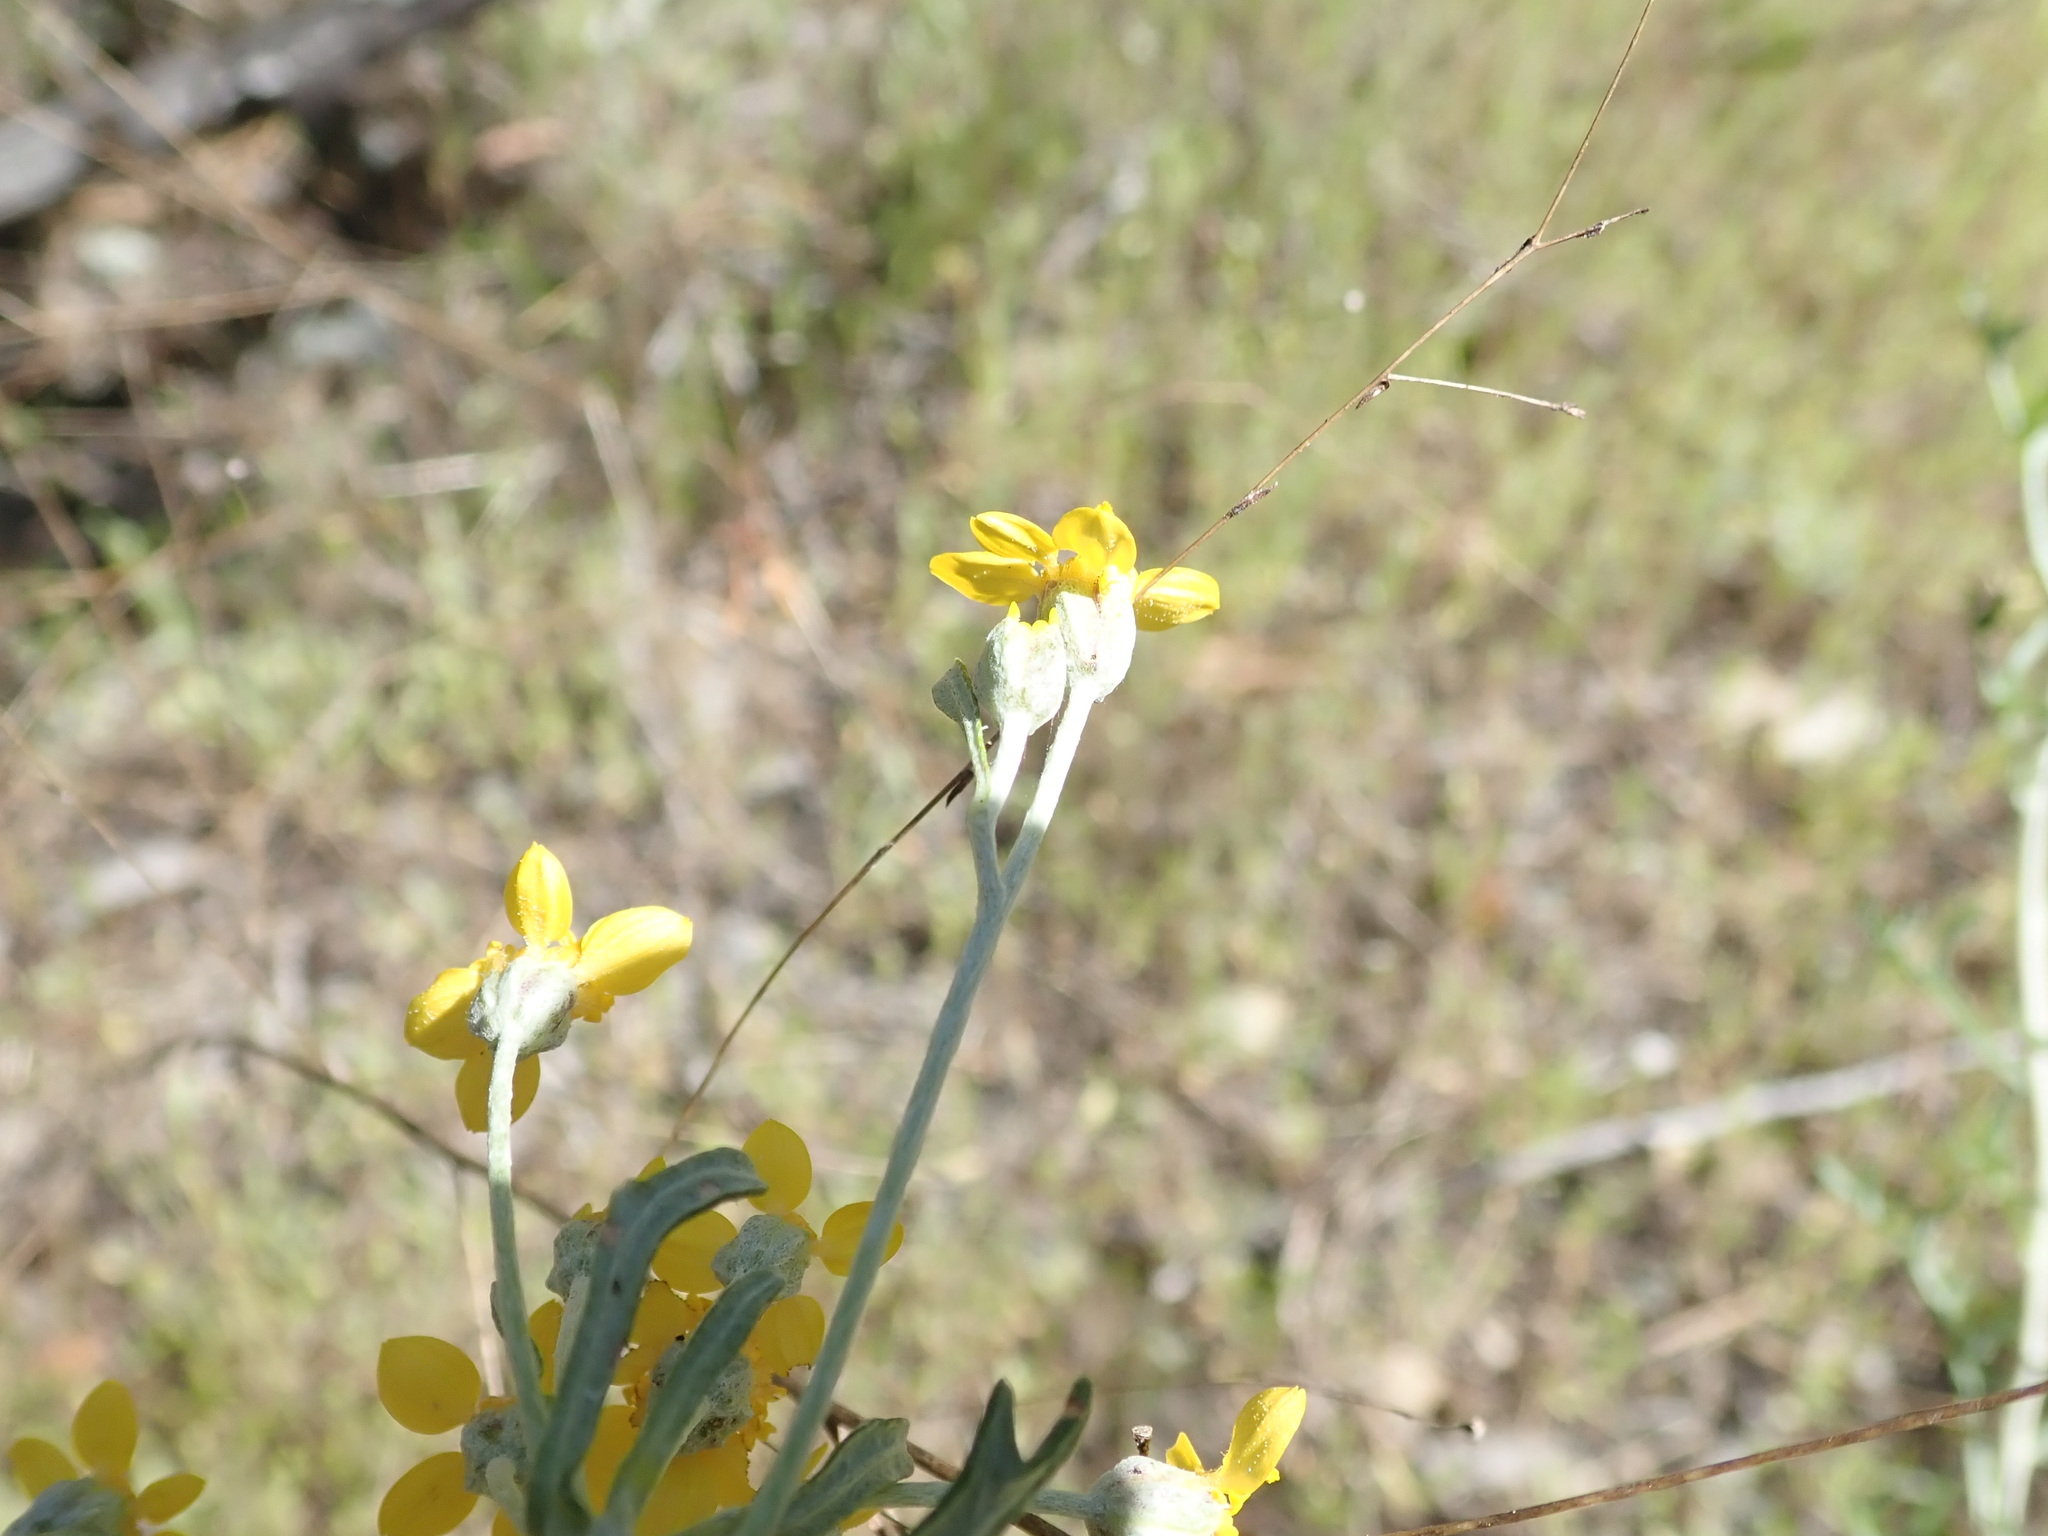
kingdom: Plantae
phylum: Tracheophyta
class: Magnoliopsida
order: Asterales
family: Asteraceae
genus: Eriophyllum
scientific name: Eriophyllum confertiflorum
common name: Golden-yarrow
